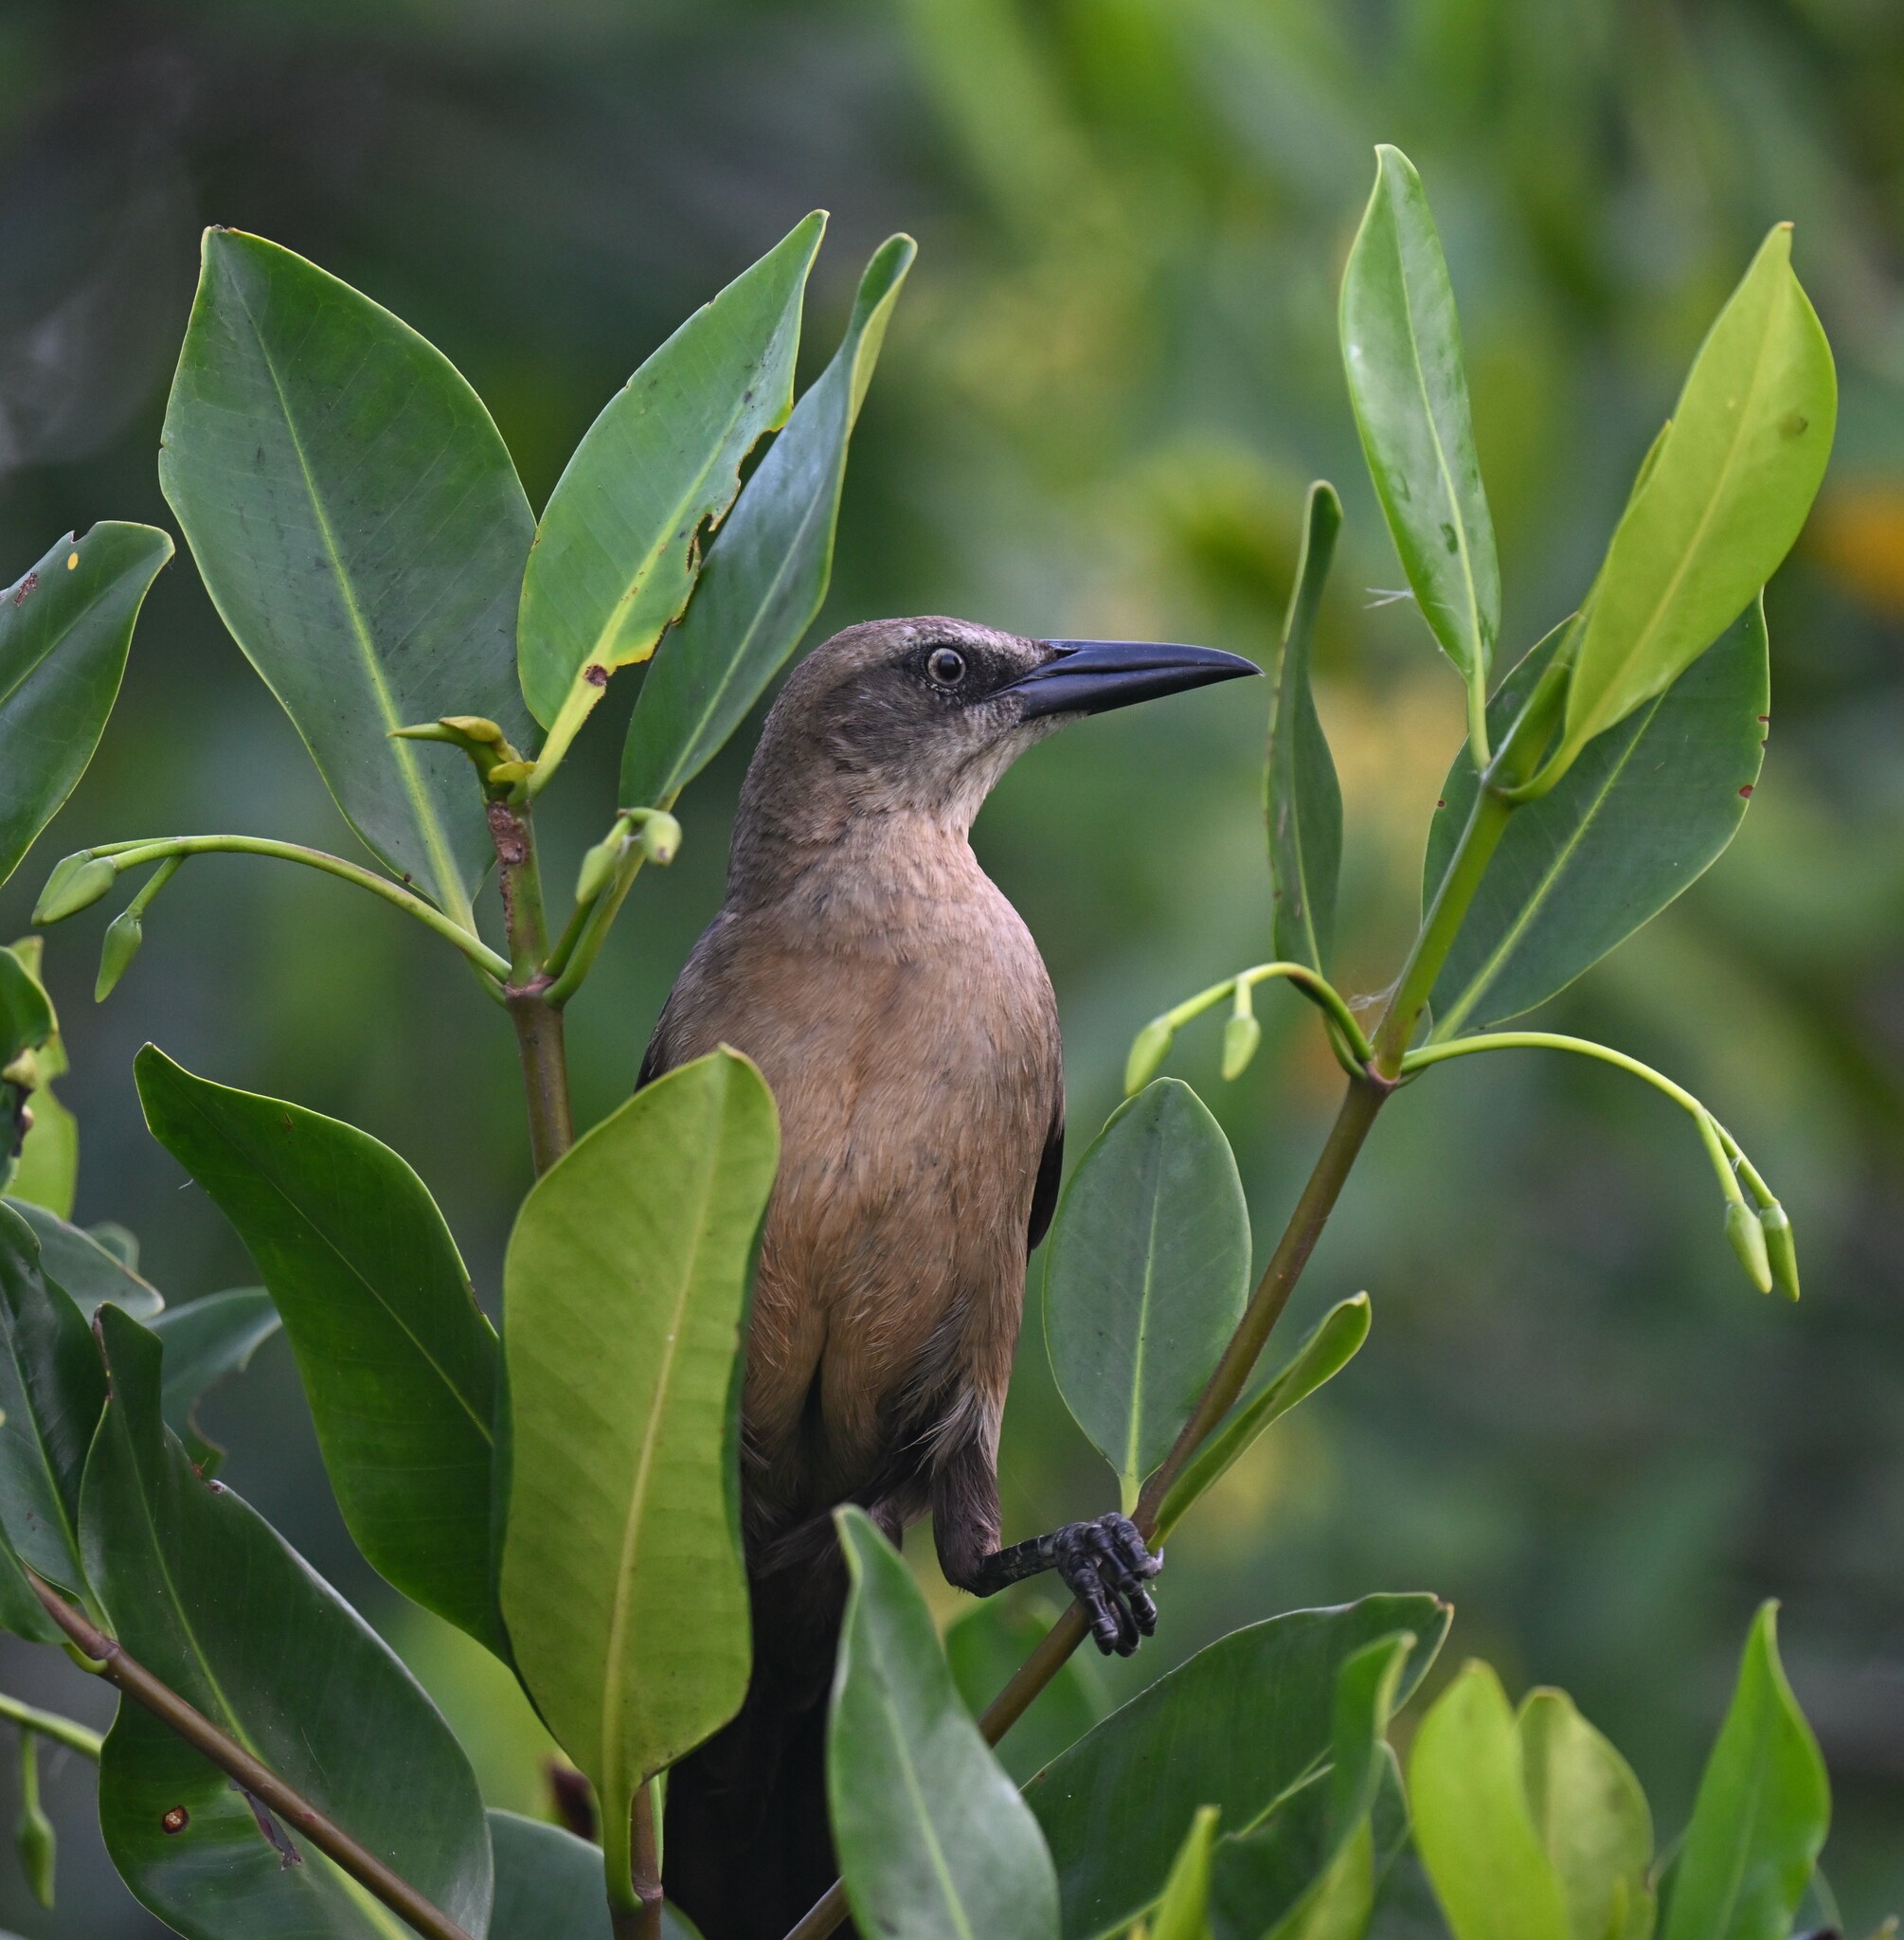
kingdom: Animalia
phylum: Chordata
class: Aves
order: Passeriformes
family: Icteridae
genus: Quiscalus
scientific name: Quiscalus mexicanus
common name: Great-tailed grackle
